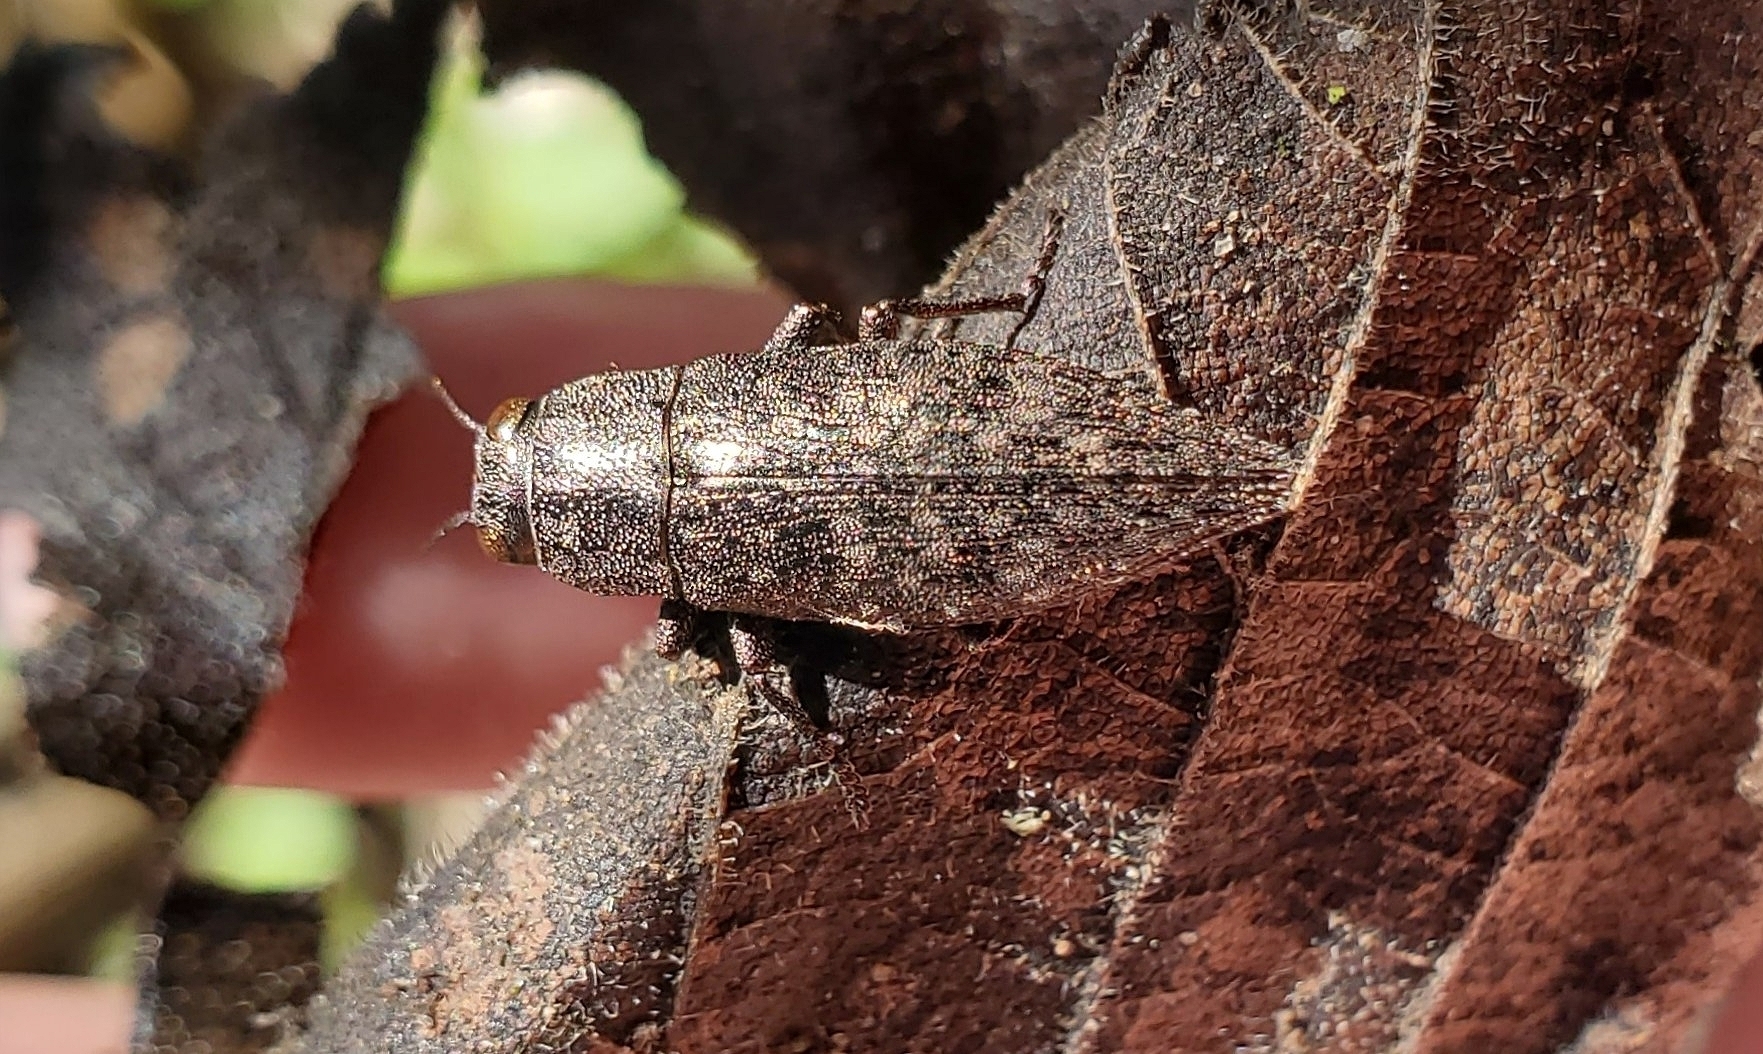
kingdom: Animalia
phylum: Arthropoda
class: Insecta
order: Coleoptera
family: Buprestidae
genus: Dicerca
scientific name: Dicerca lurida
